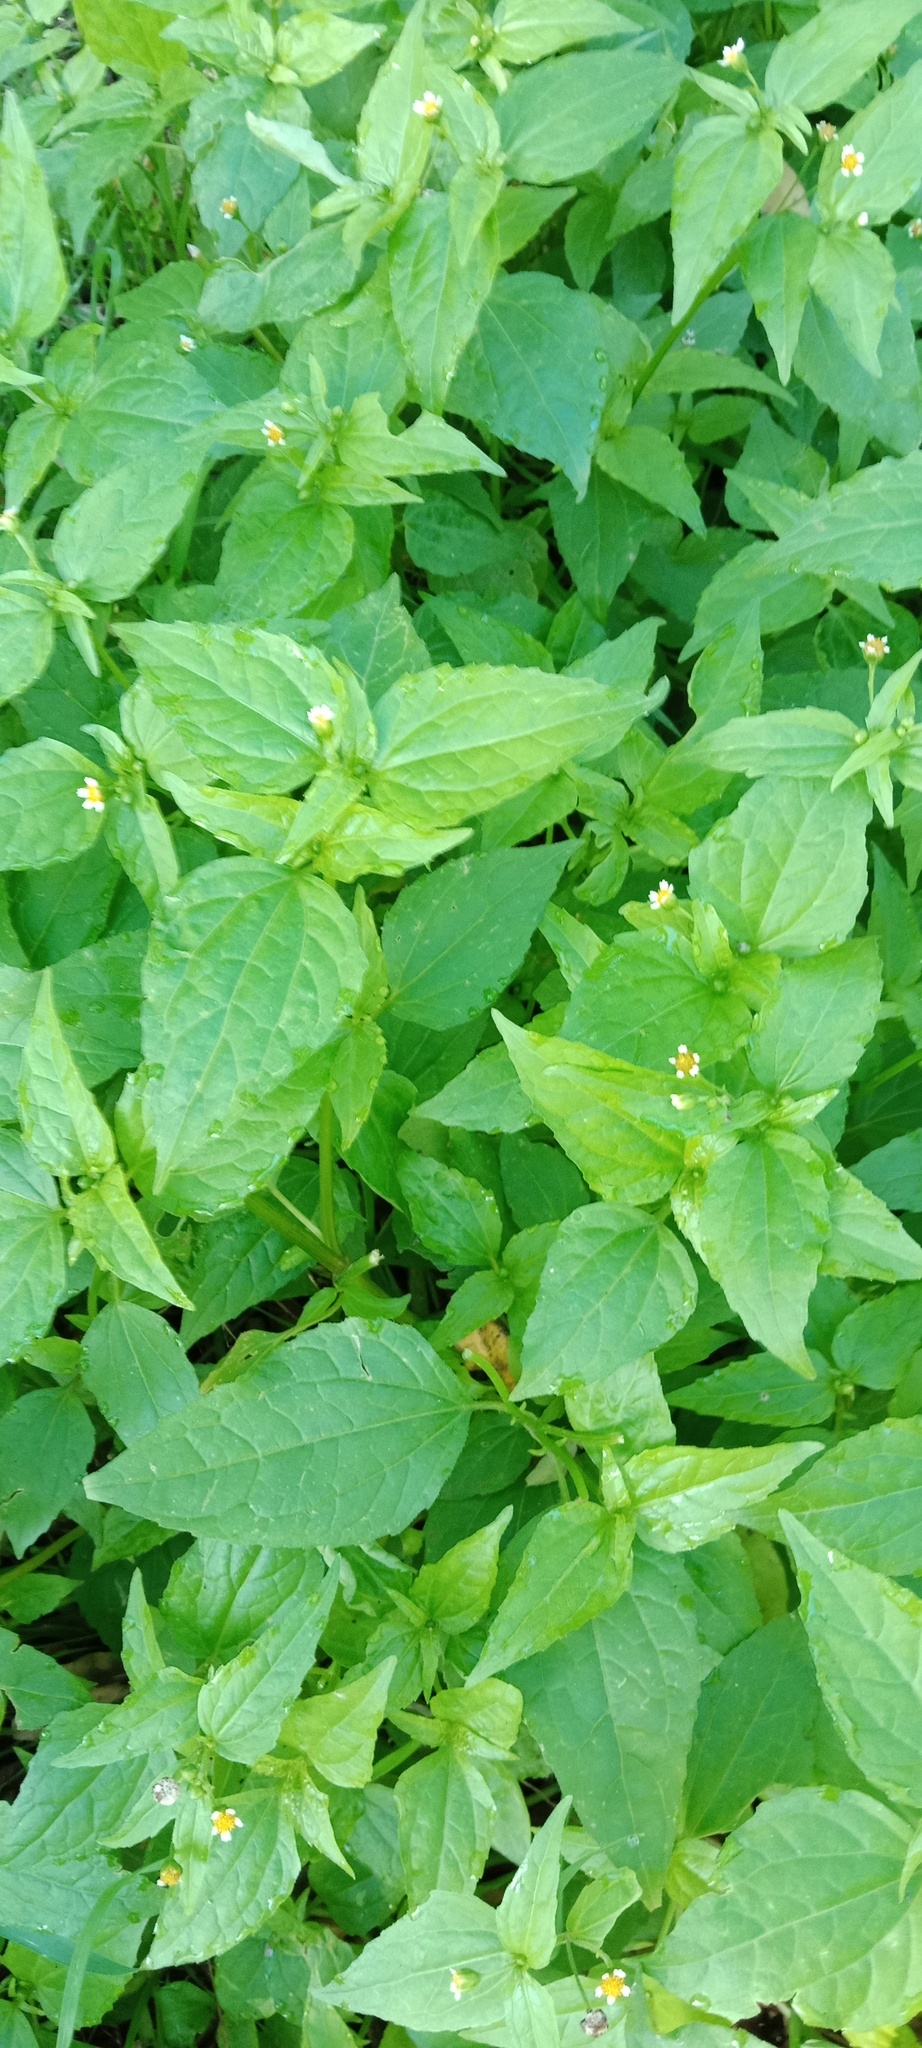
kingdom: Plantae
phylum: Tracheophyta
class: Magnoliopsida
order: Asterales
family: Asteraceae
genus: Galinsoga
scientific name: Galinsoga parviflora
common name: Gallant soldier
